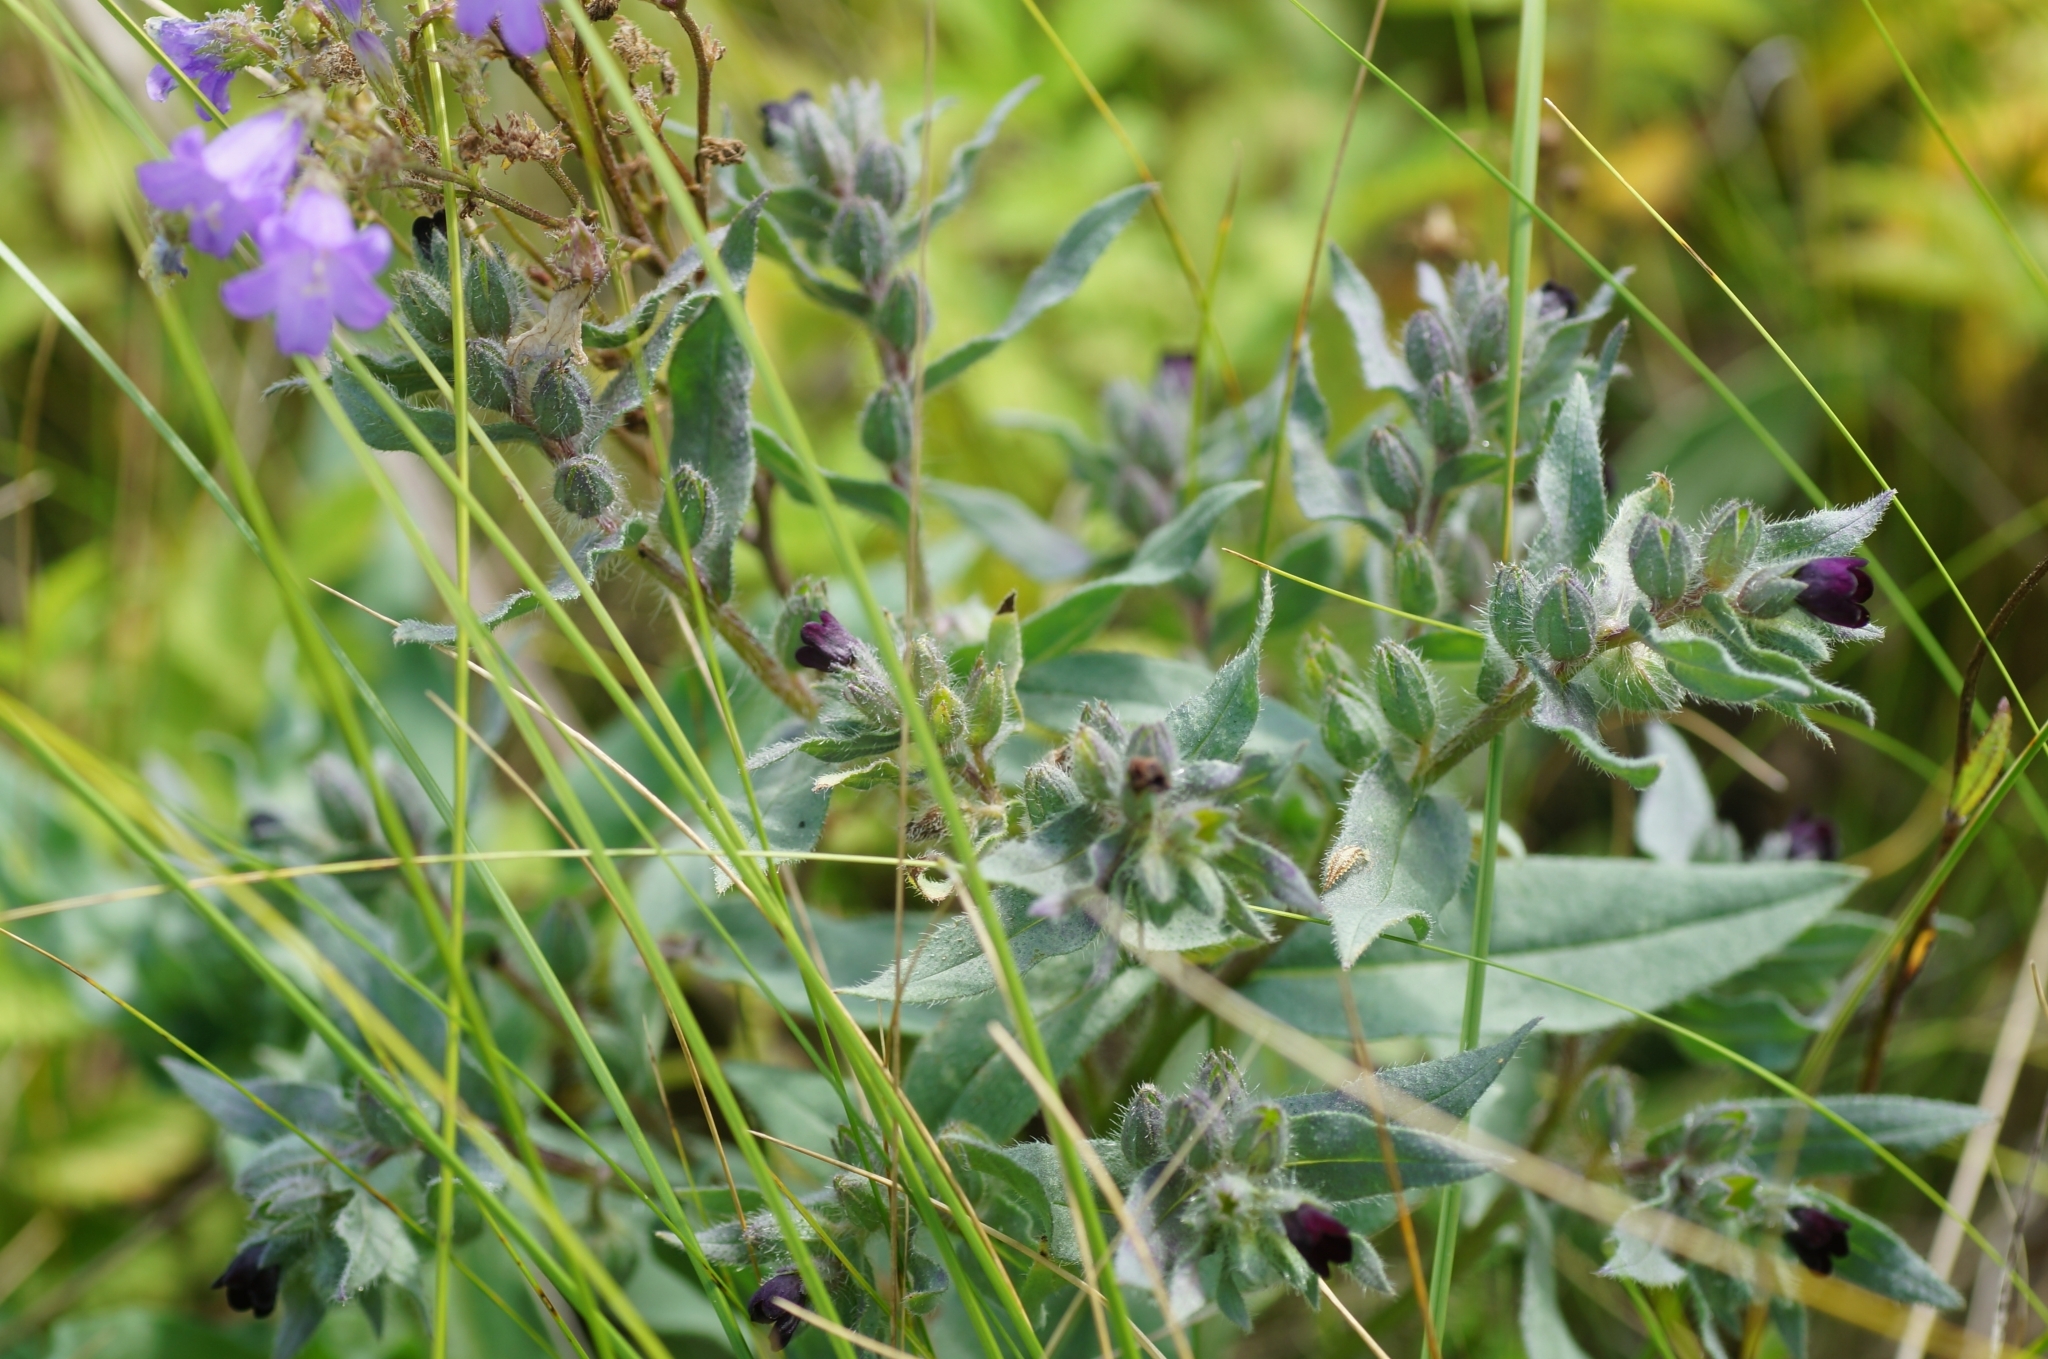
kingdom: Plantae
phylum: Tracheophyta
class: Magnoliopsida
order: Boraginales
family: Boraginaceae
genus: Nonea
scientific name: Nonea pulla
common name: Brown nonea
